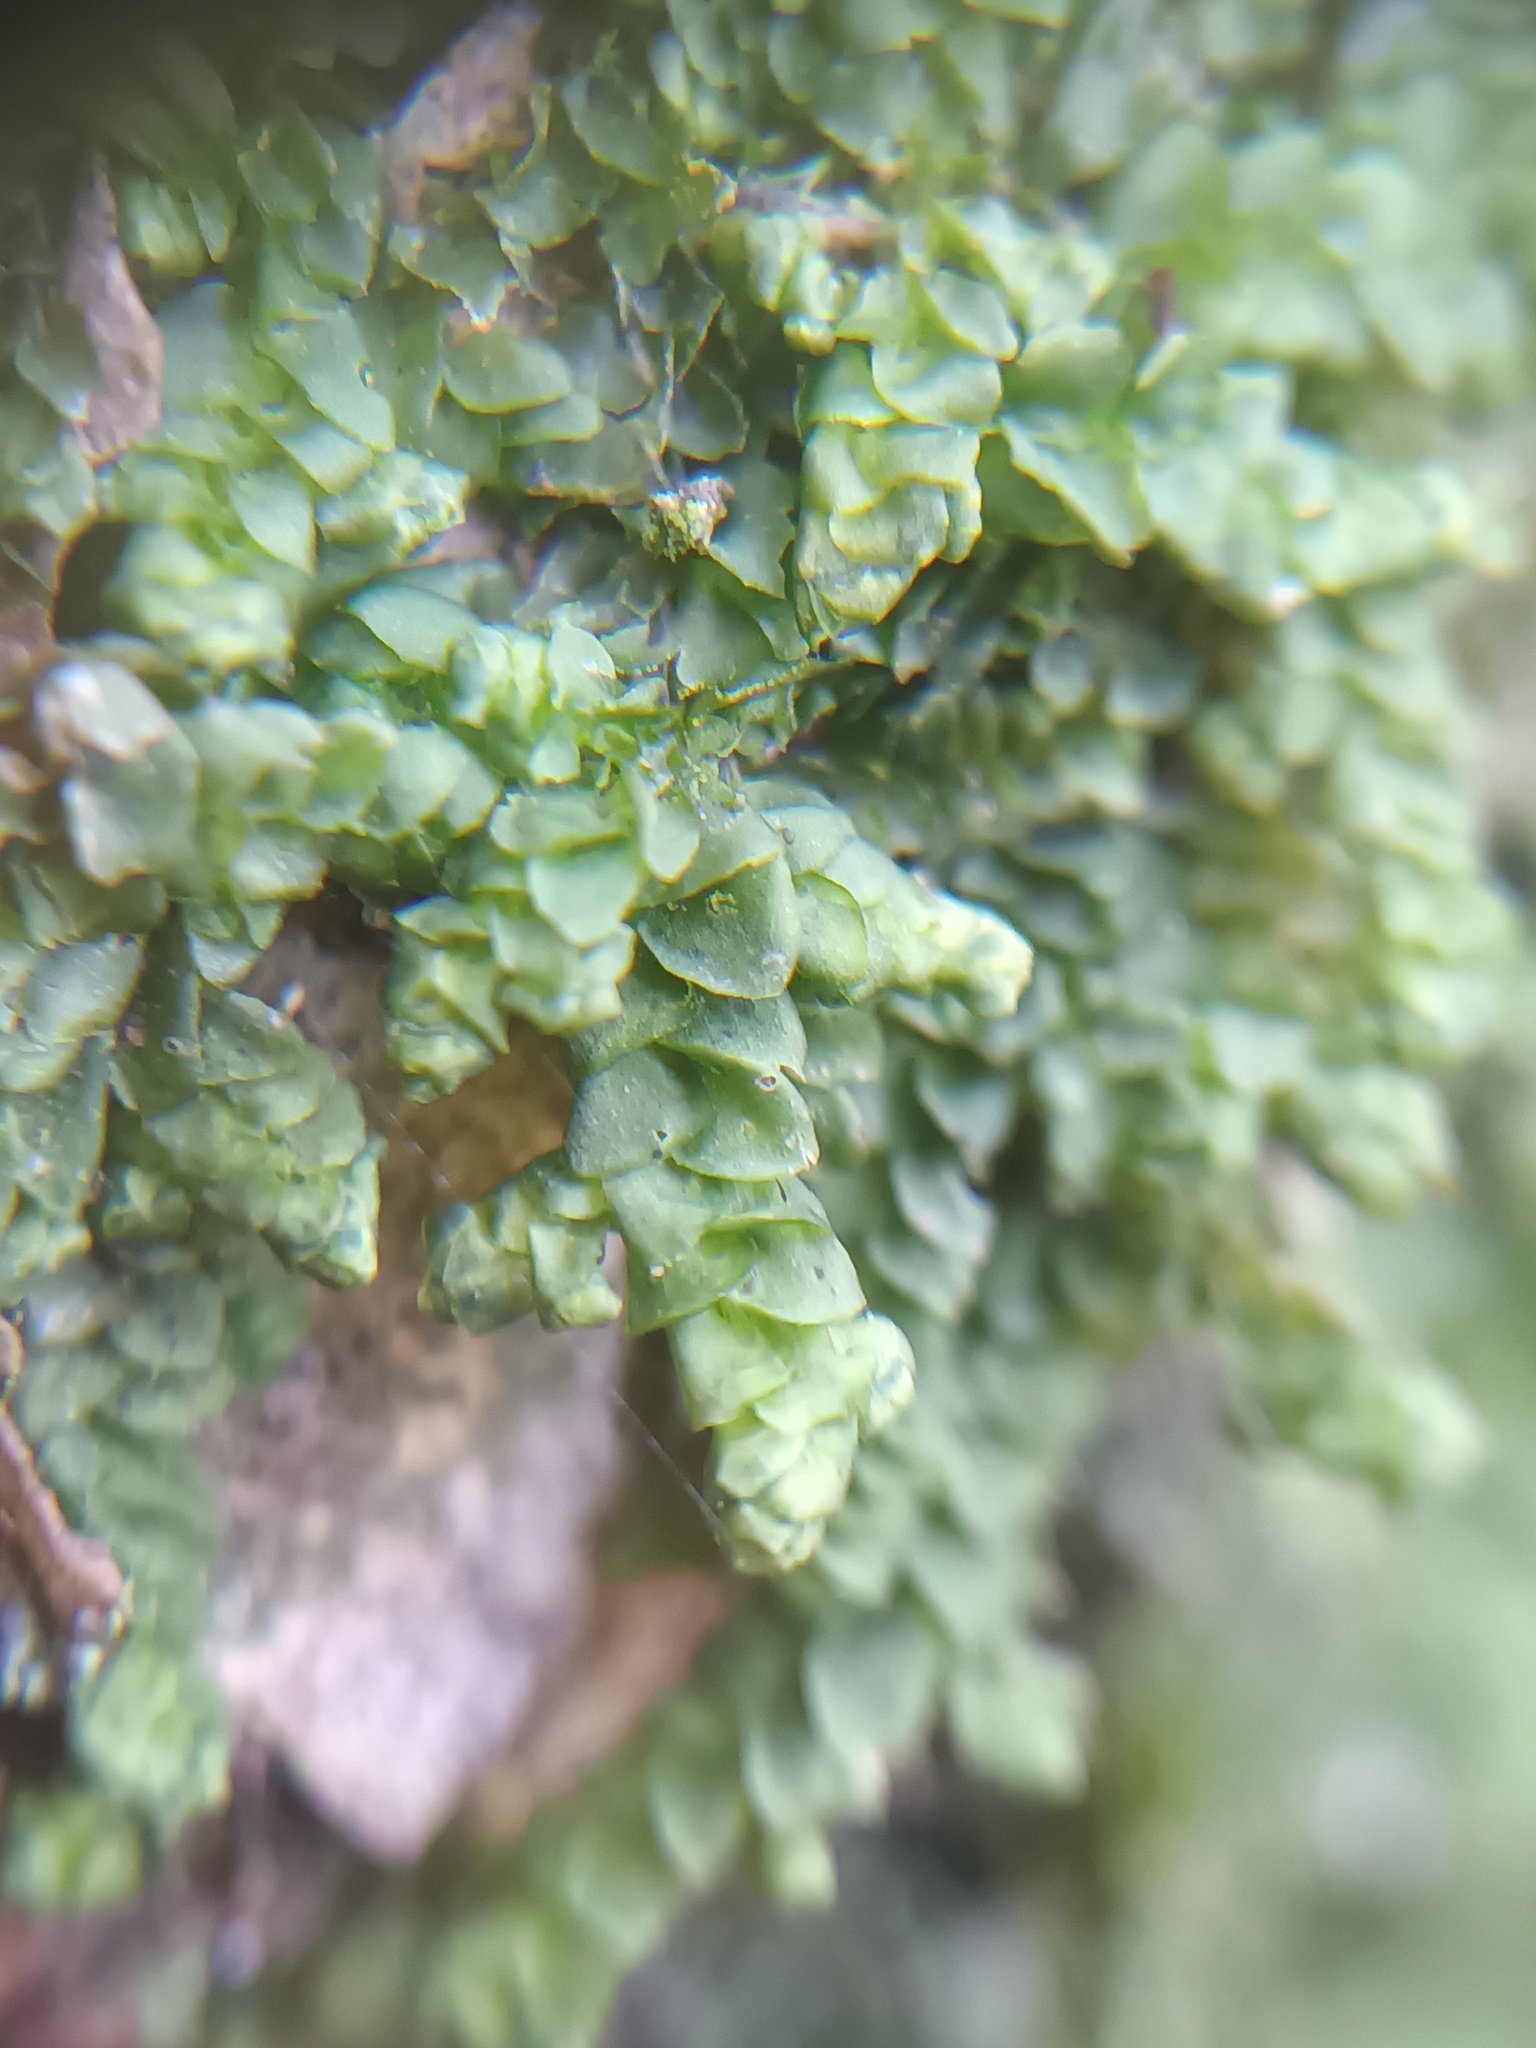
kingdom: Plantae
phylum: Marchantiophyta
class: Jungermanniopsida
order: Porellales
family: Porellaceae
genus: Porella
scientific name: Porella platyphylla
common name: Wall scalewort
